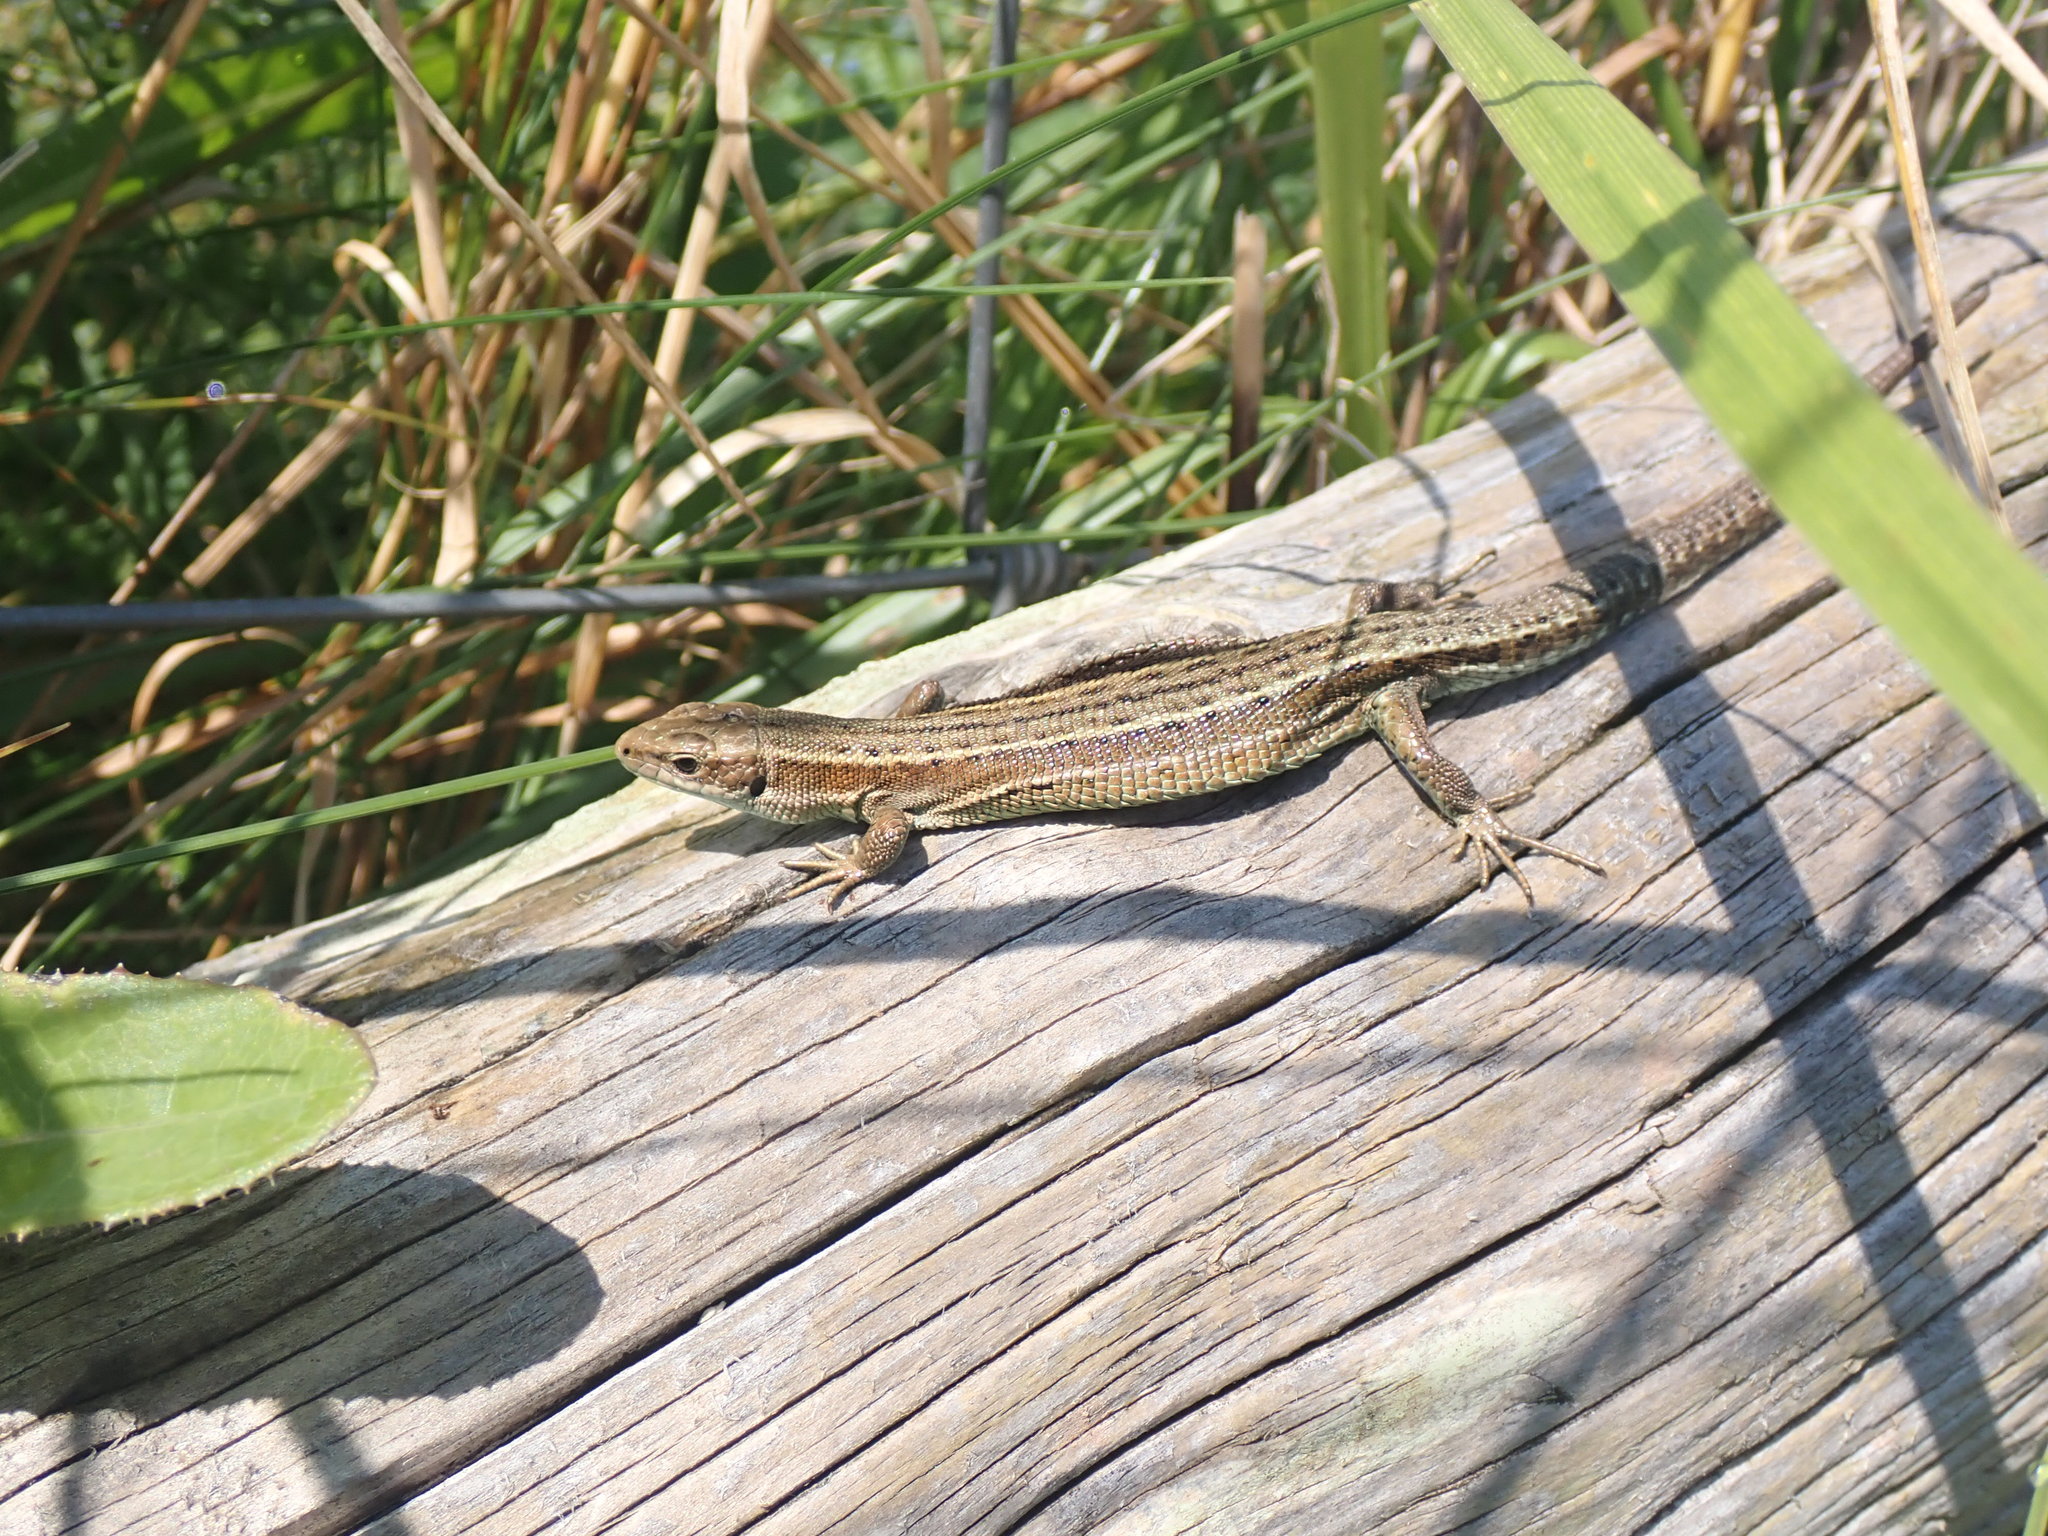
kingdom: Animalia
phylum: Chordata
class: Squamata
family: Lacertidae
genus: Zootoca
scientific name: Zootoca vivipara
